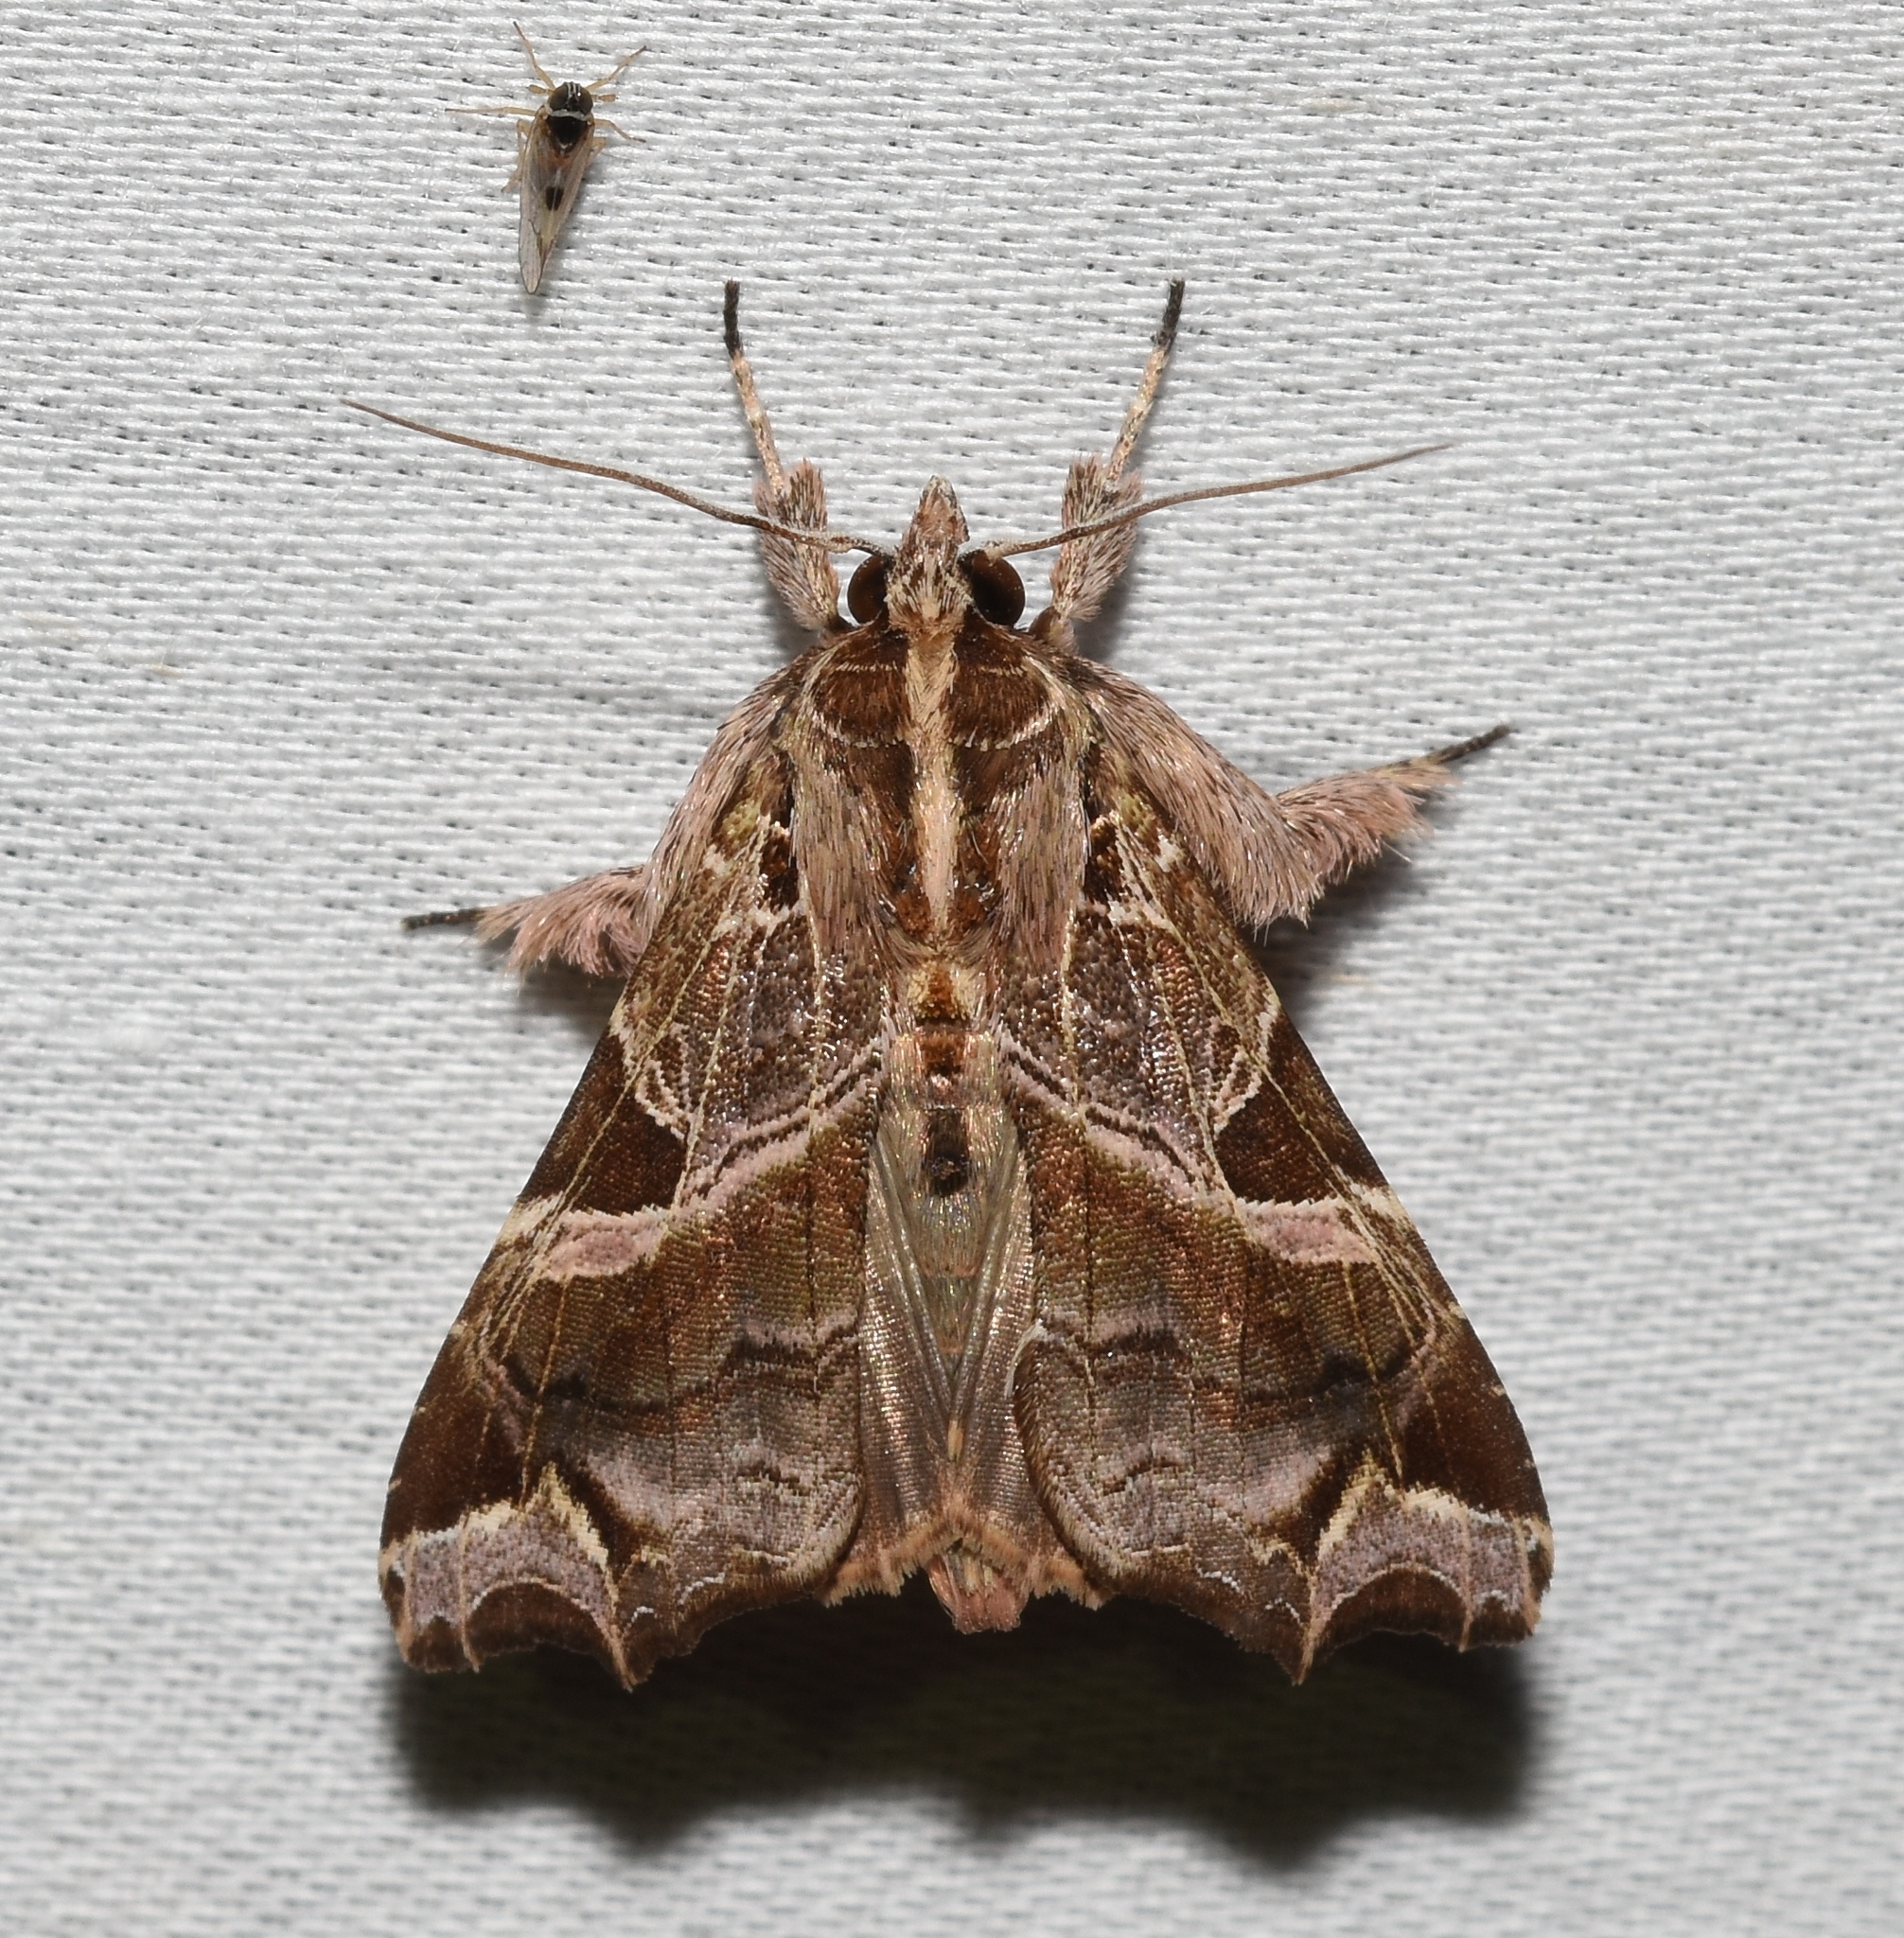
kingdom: Animalia
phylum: Arthropoda
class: Insecta
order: Lepidoptera
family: Noctuidae
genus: Callopistria
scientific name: Callopistria floridensis
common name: Florida fern moth
